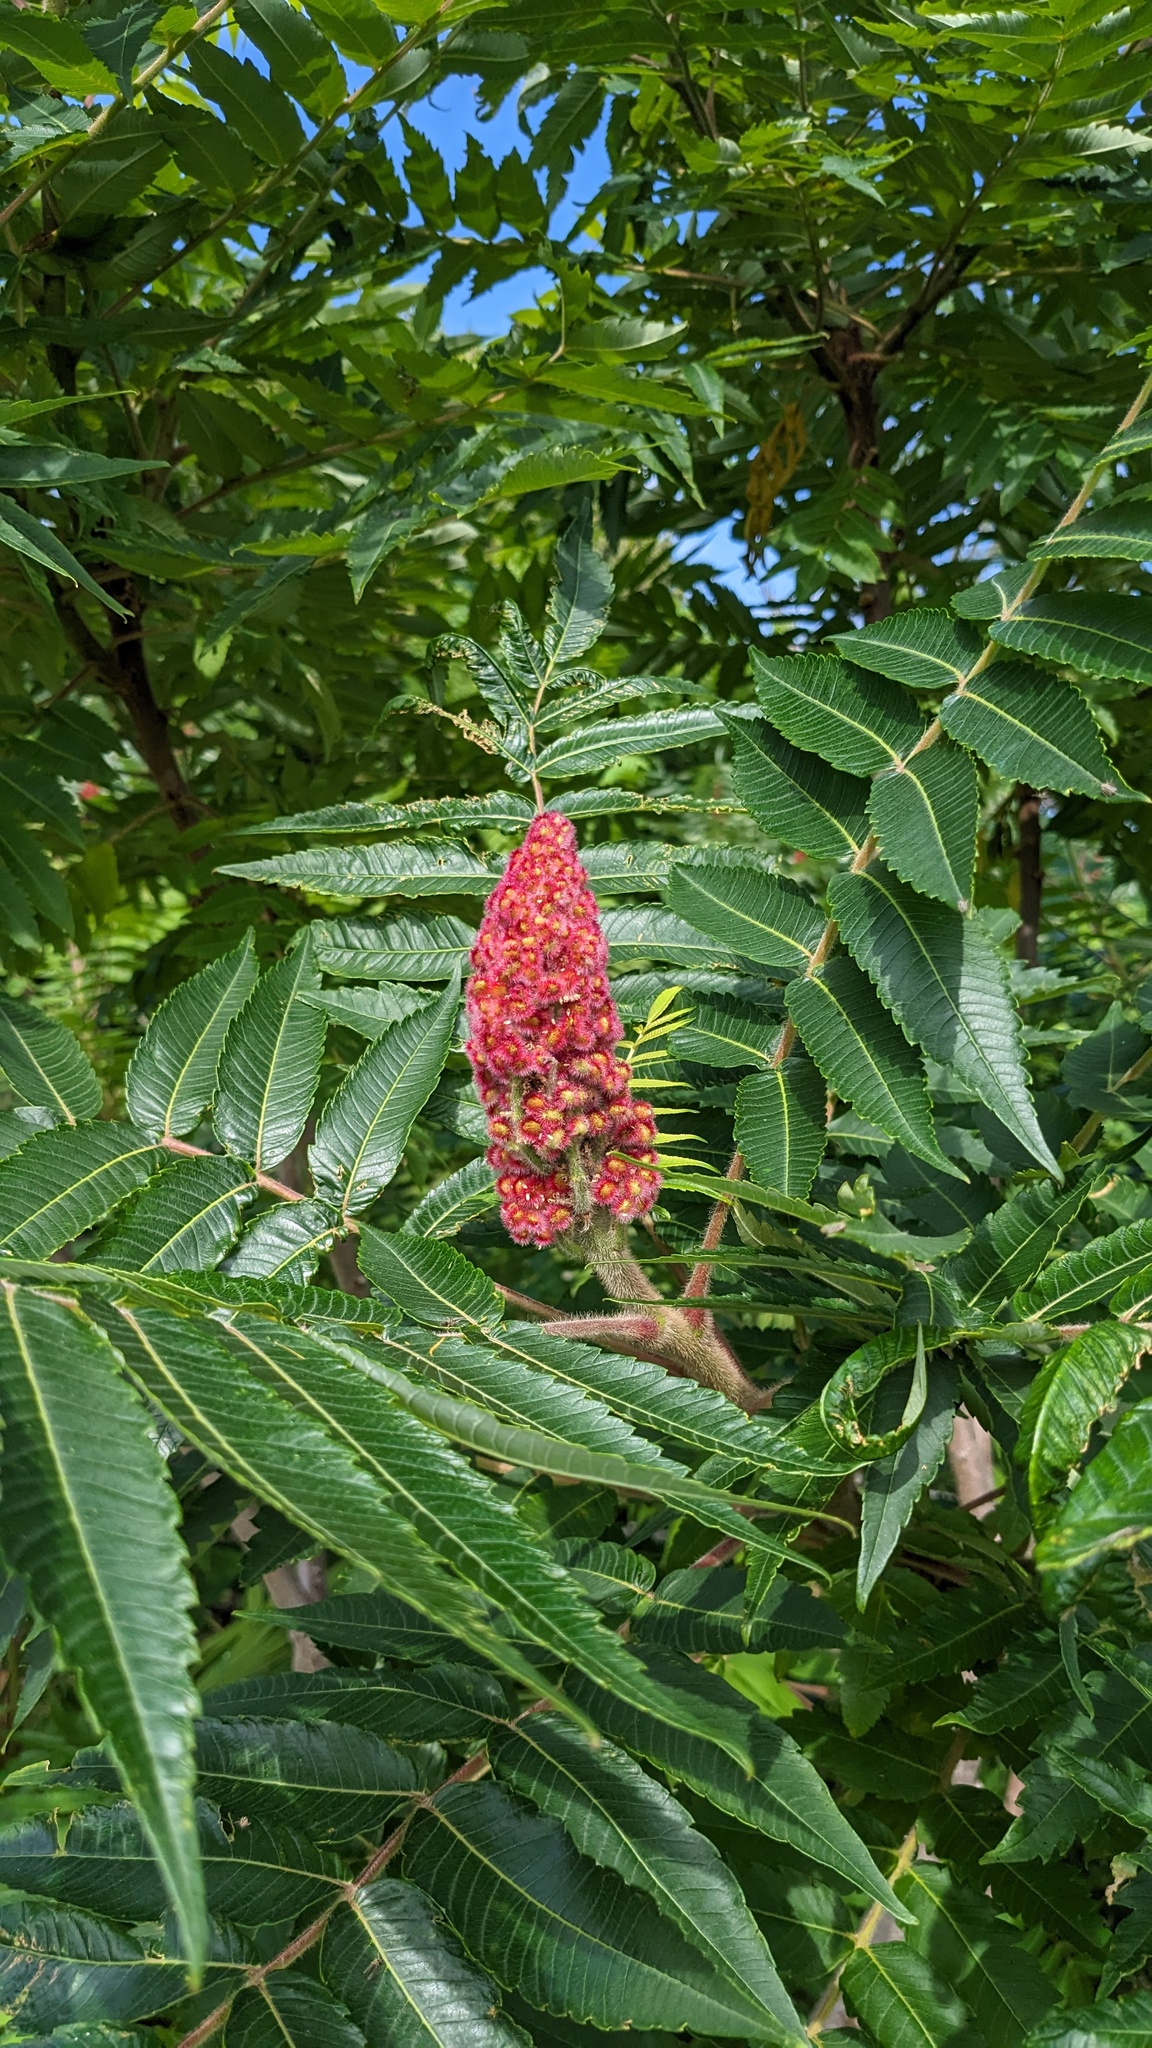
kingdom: Plantae
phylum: Tracheophyta
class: Magnoliopsida
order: Sapindales
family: Anacardiaceae
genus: Rhus
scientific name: Rhus typhina
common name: Staghorn sumac
